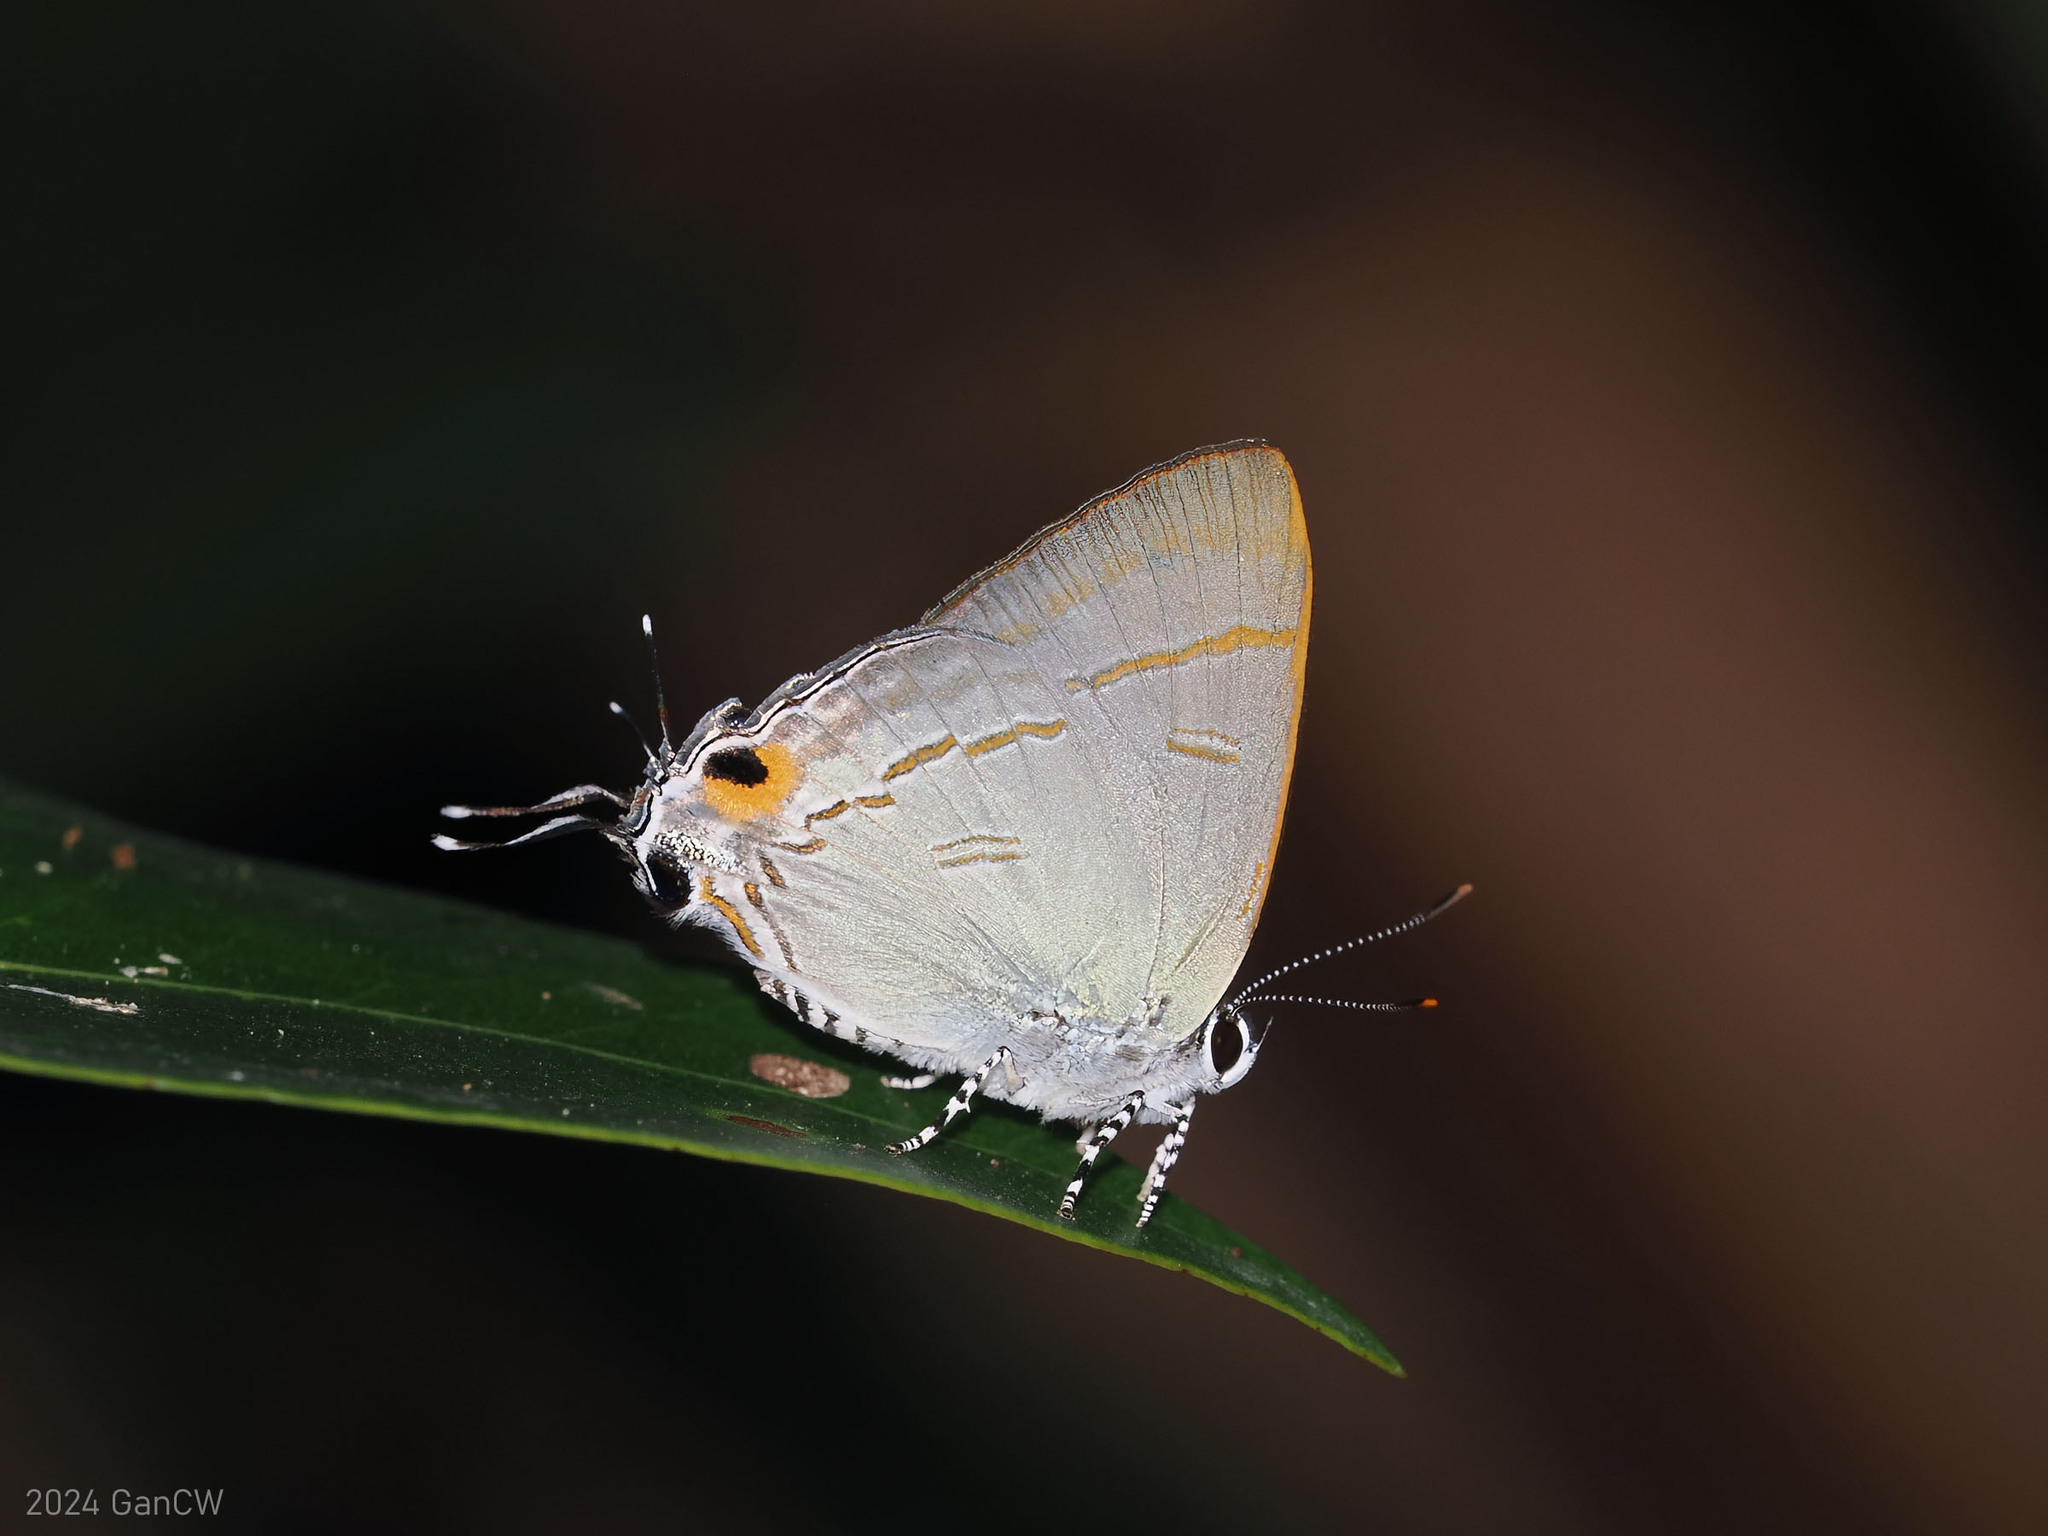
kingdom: Animalia
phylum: Arthropoda
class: Insecta
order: Lepidoptera
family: Lycaenidae
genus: Hypolycaena
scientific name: Hypolycaena erylus
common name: Common tit
